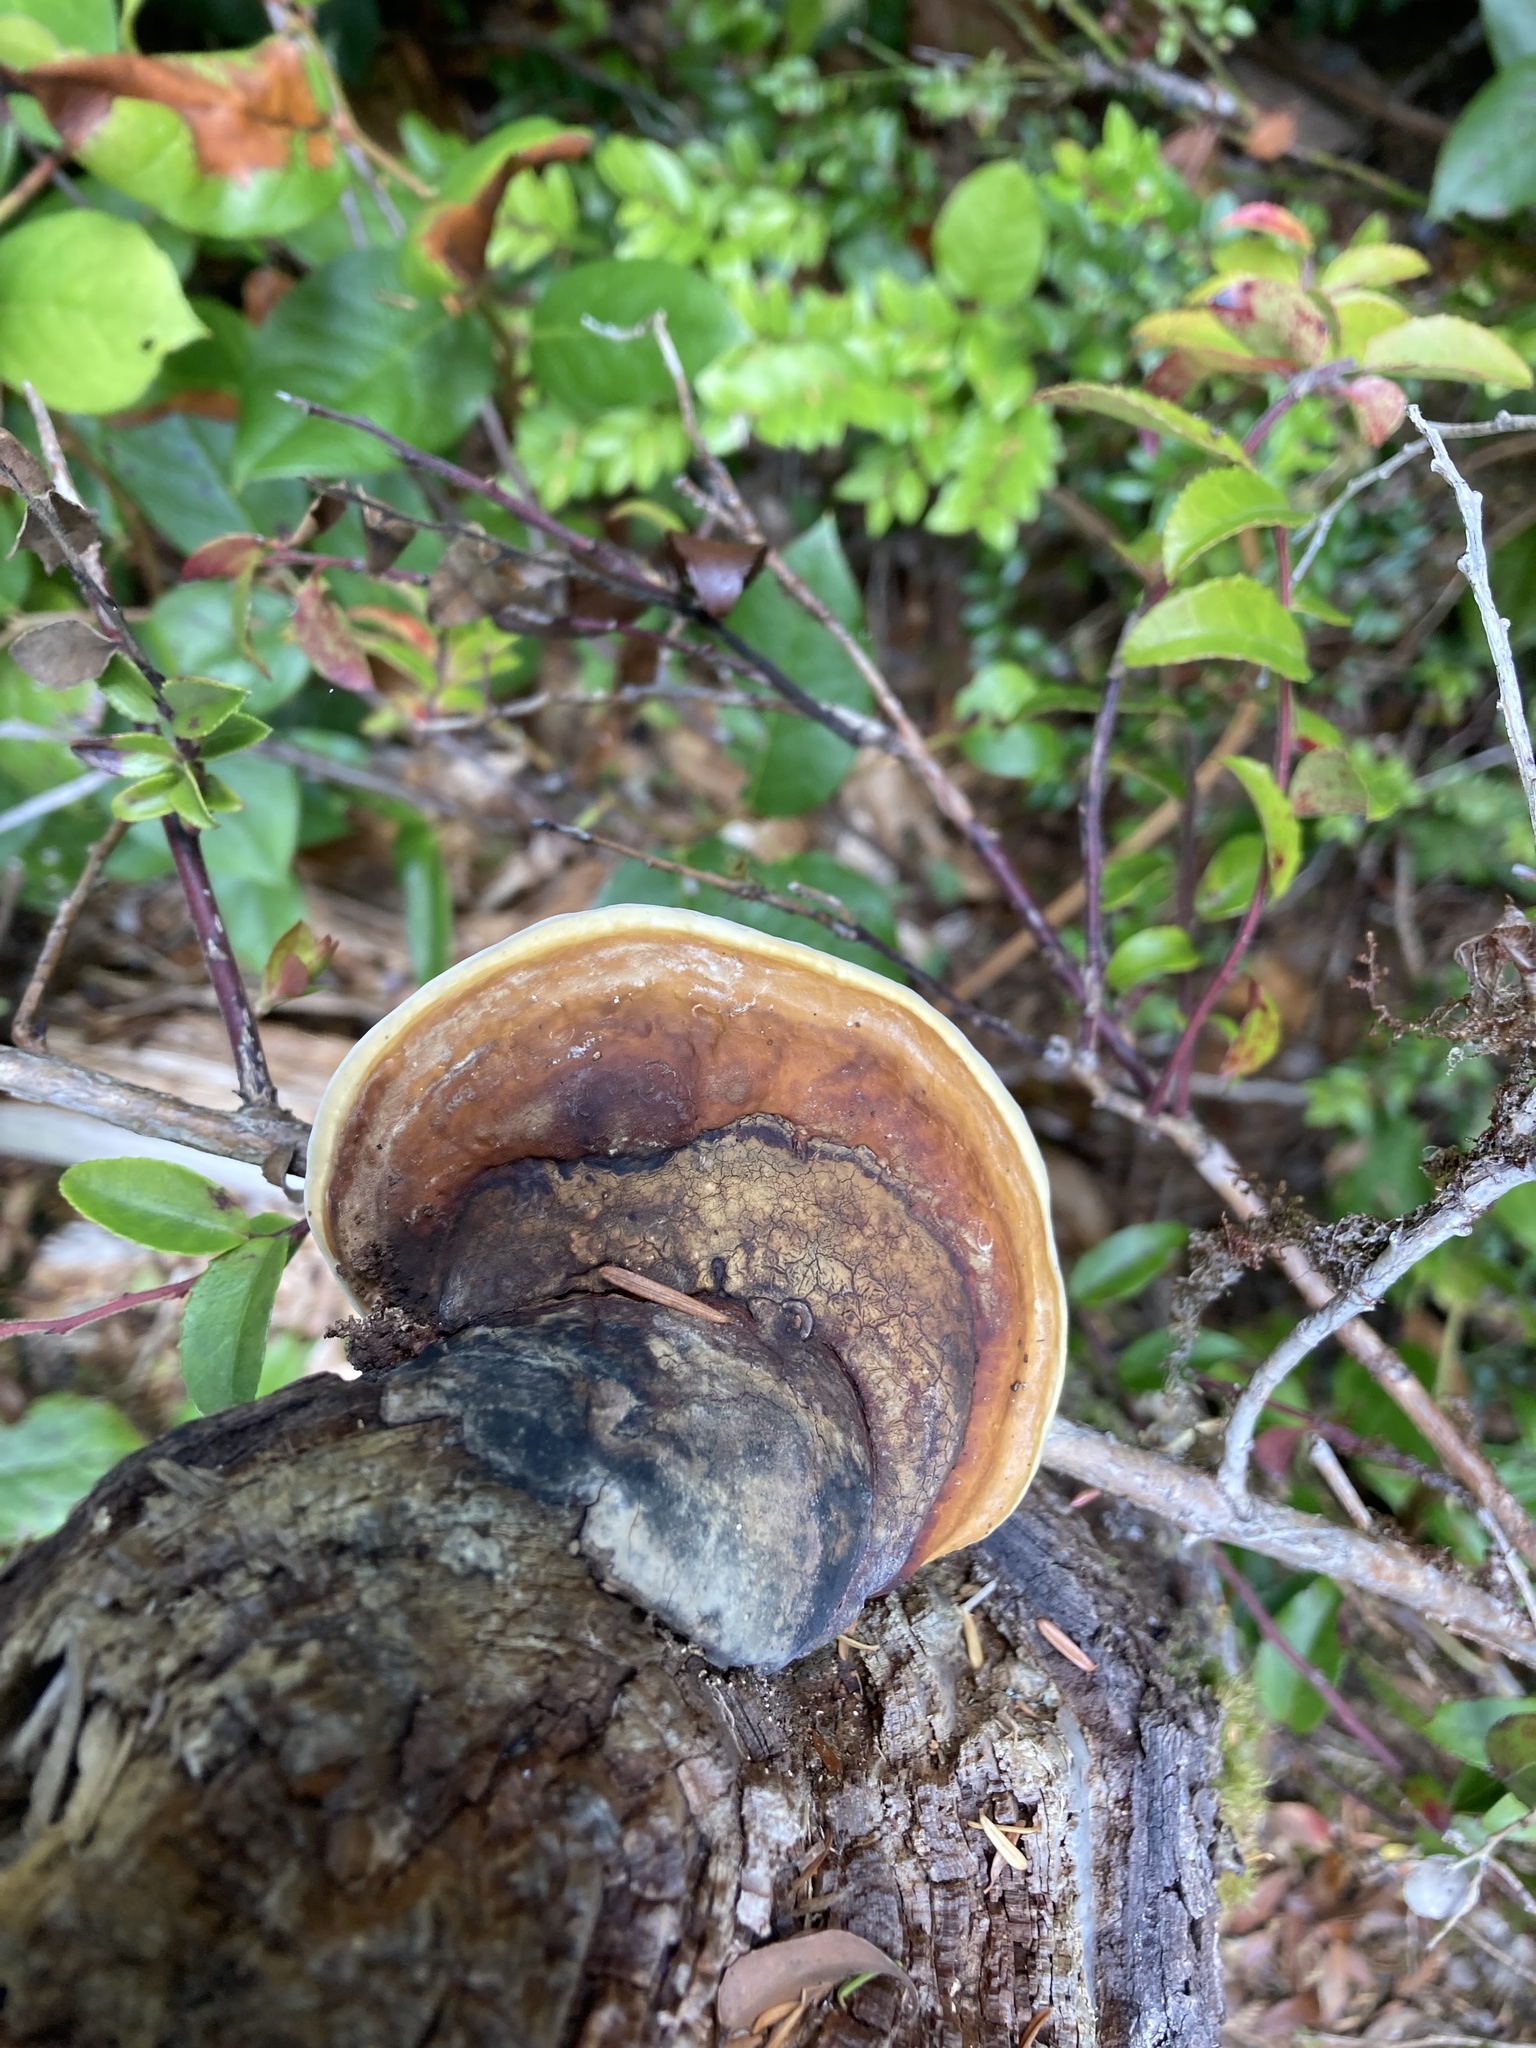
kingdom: Fungi
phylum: Basidiomycota
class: Agaricomycetes
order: Polyporales
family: Fomitopsidaceae
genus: Fomitopsis
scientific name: Fomitopsis mounceae
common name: Northern red belt
